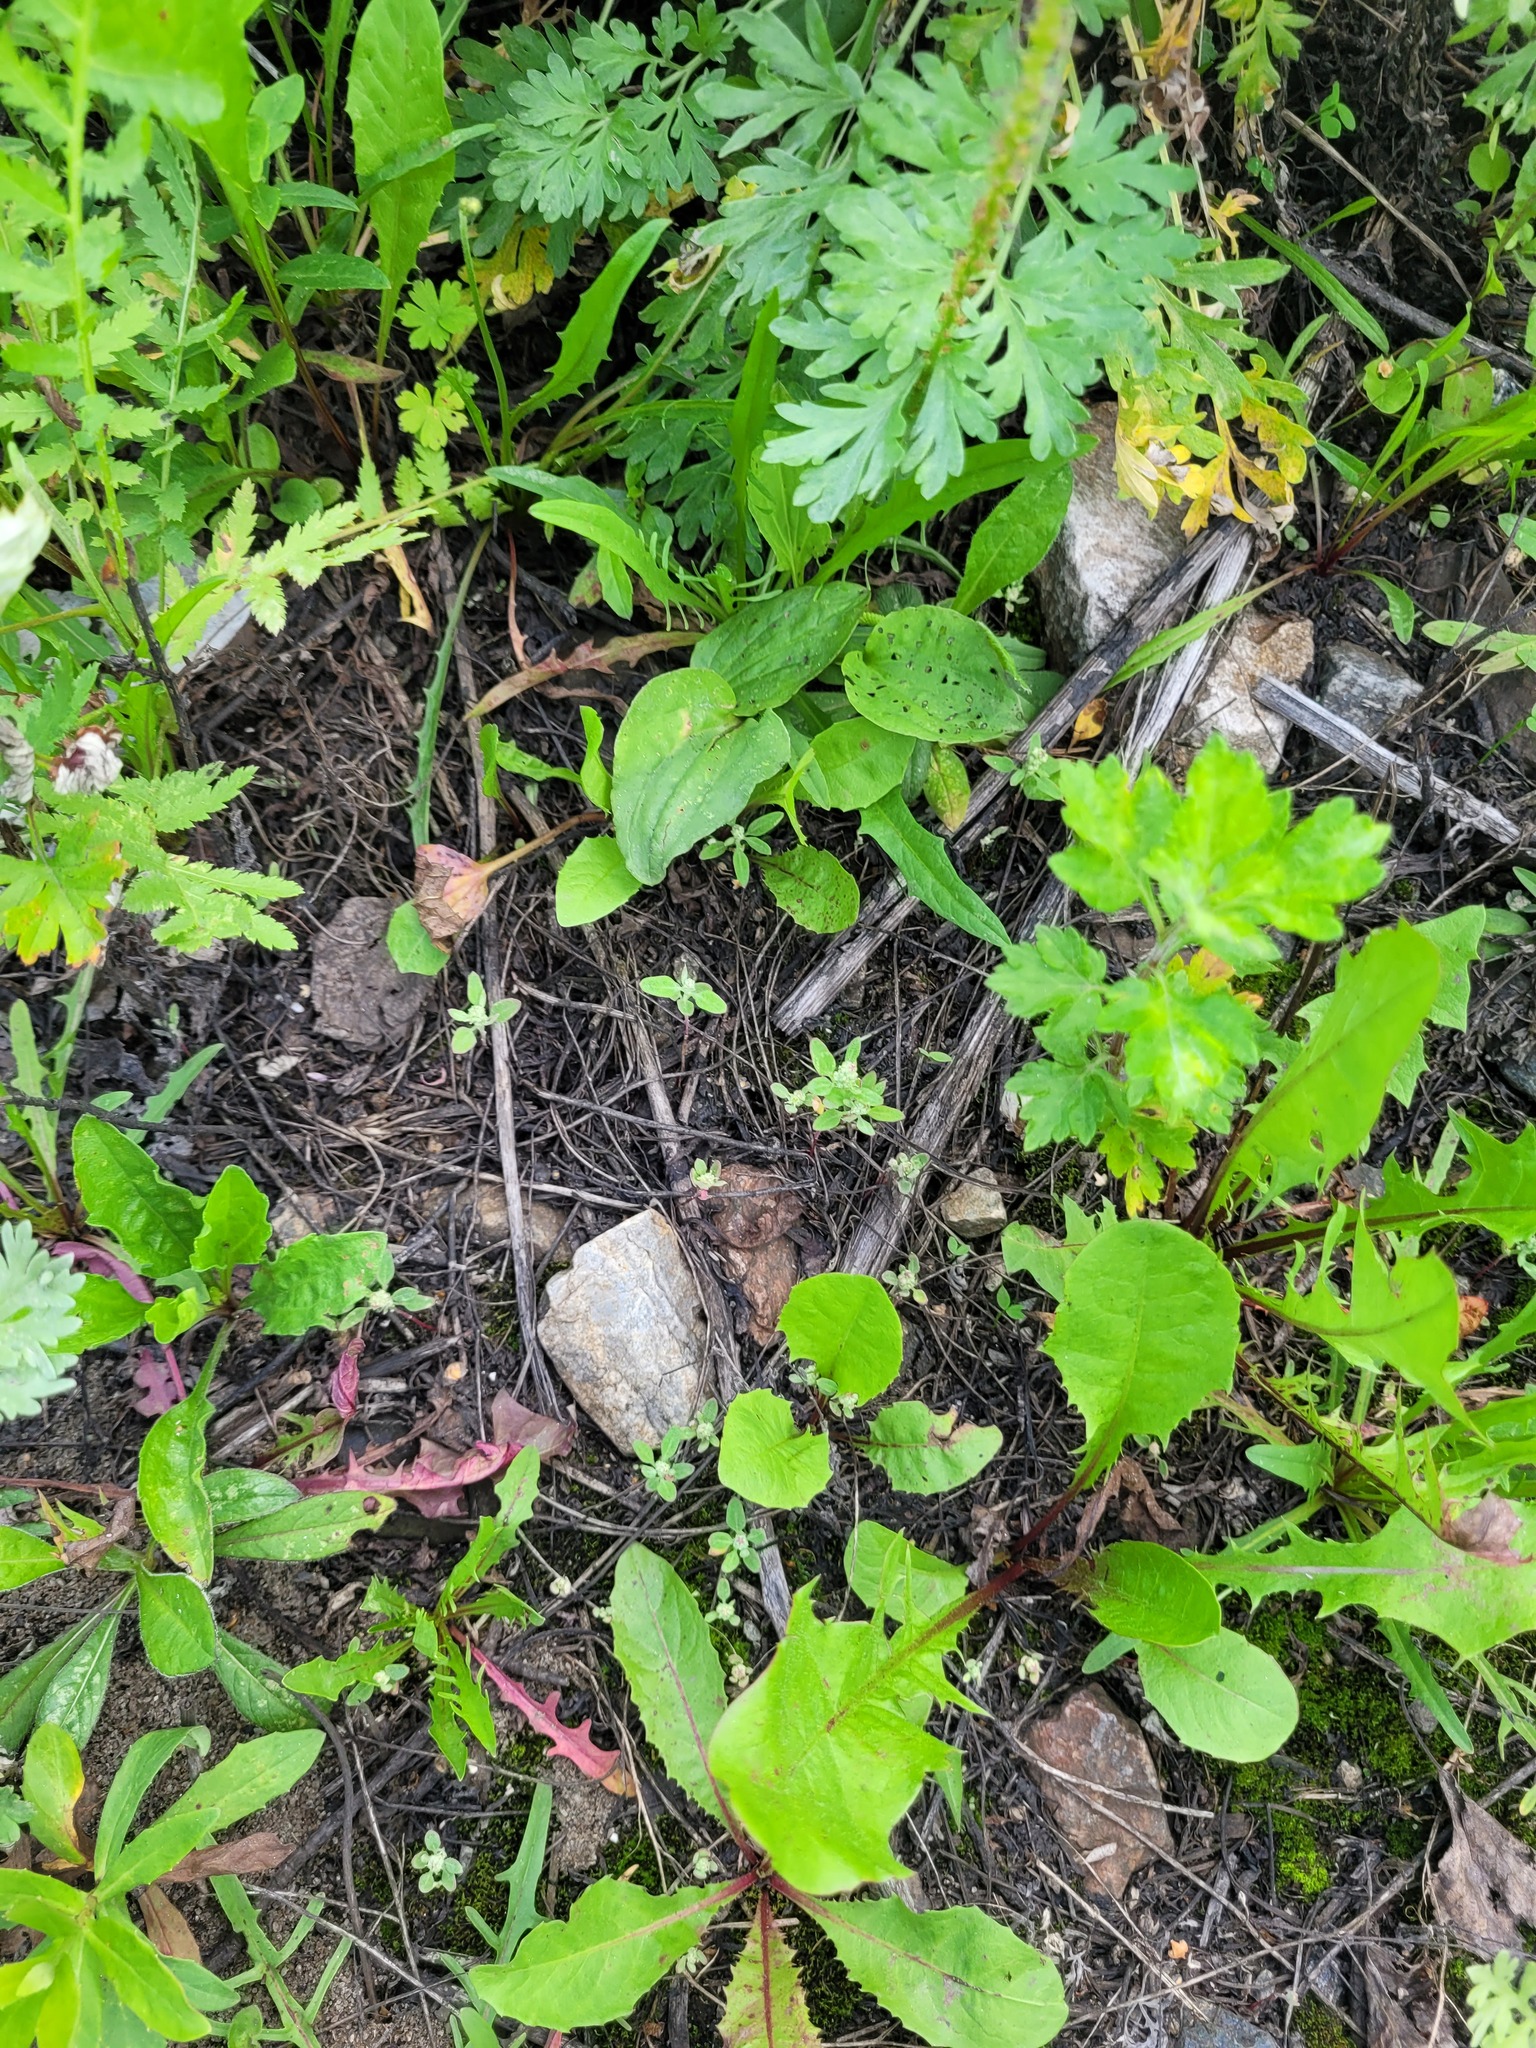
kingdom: Plantae
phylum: Tracheophyta
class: Magnoliopsida
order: Caryophyllales
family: Amaranthaceae
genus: Chenopodium
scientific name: Chenopodium album
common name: Fat-hen
